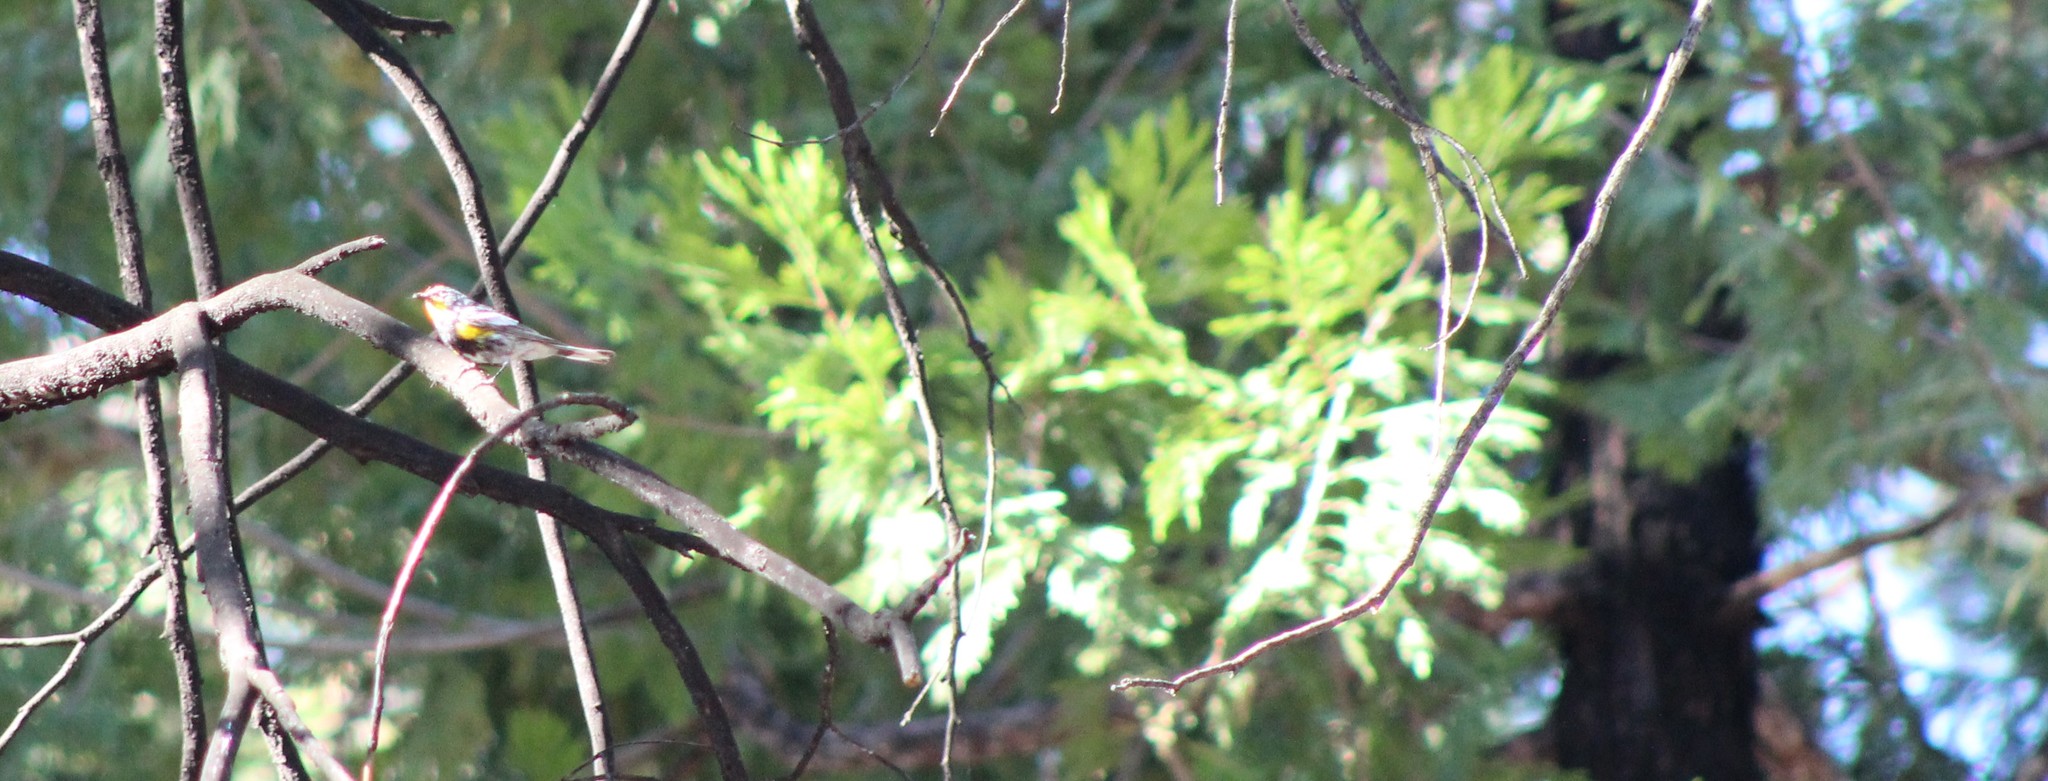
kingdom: Animalia
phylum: Chordata
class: Aves
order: Passeriformes
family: Parulidae
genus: Setophaga
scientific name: Setophaga coronata
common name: Myrtle warbler
